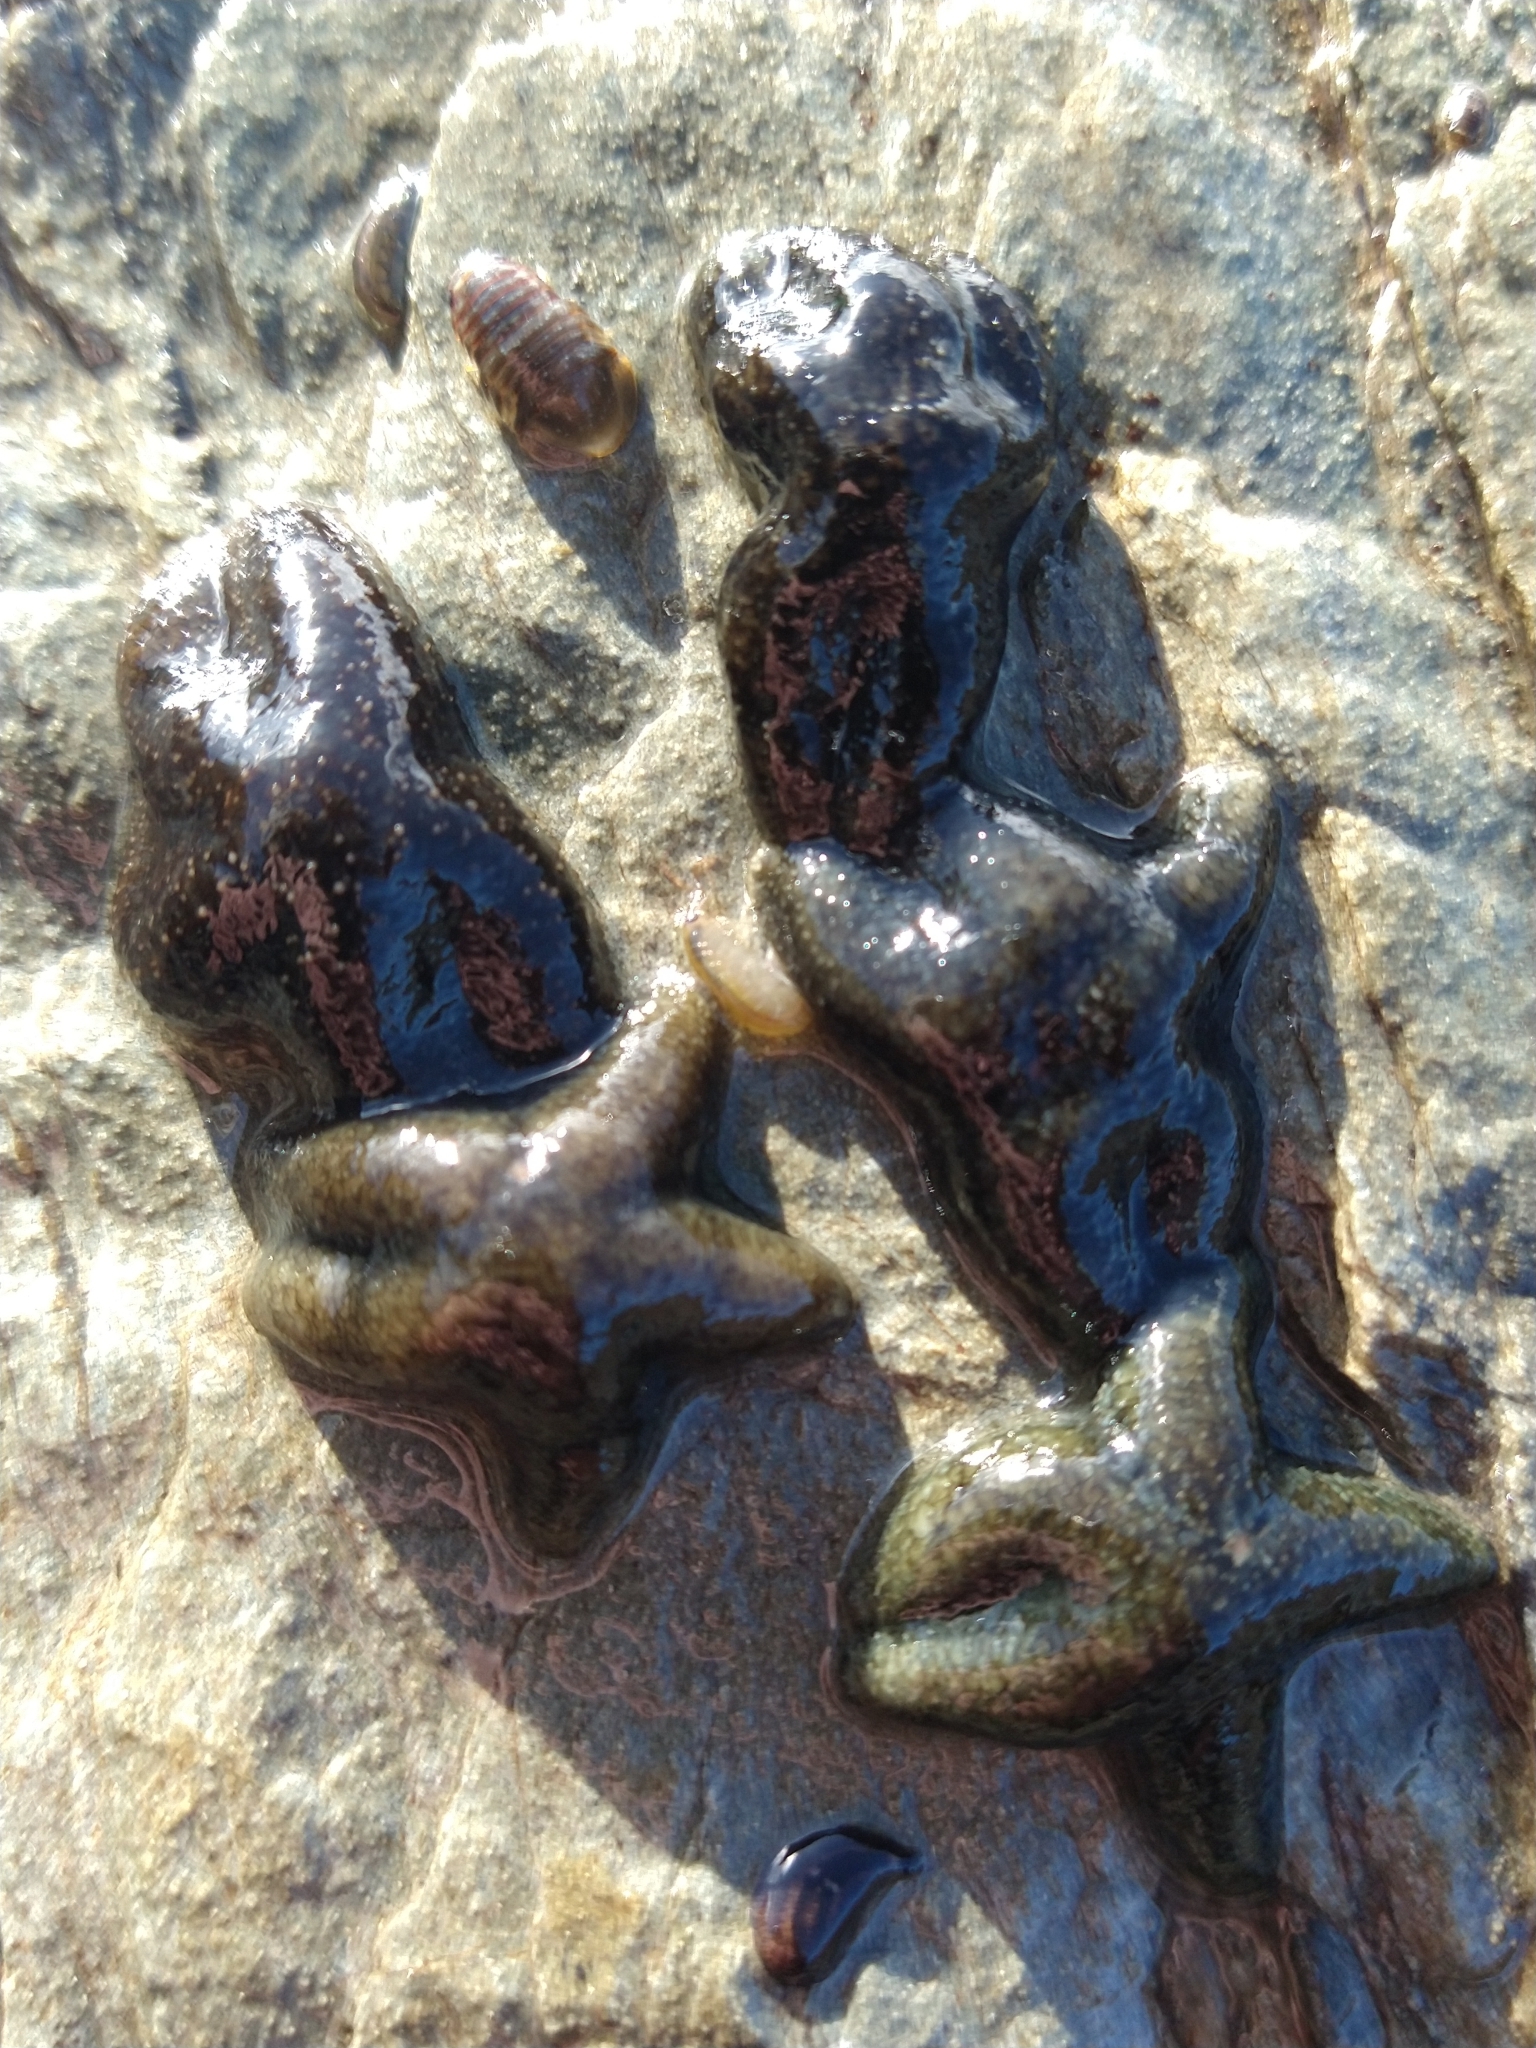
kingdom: Animalia
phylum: Echinodermata
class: Asteroidea
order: Forcipulatida
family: Asteriidae
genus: Anasterias
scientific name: Anasterias antarctica
